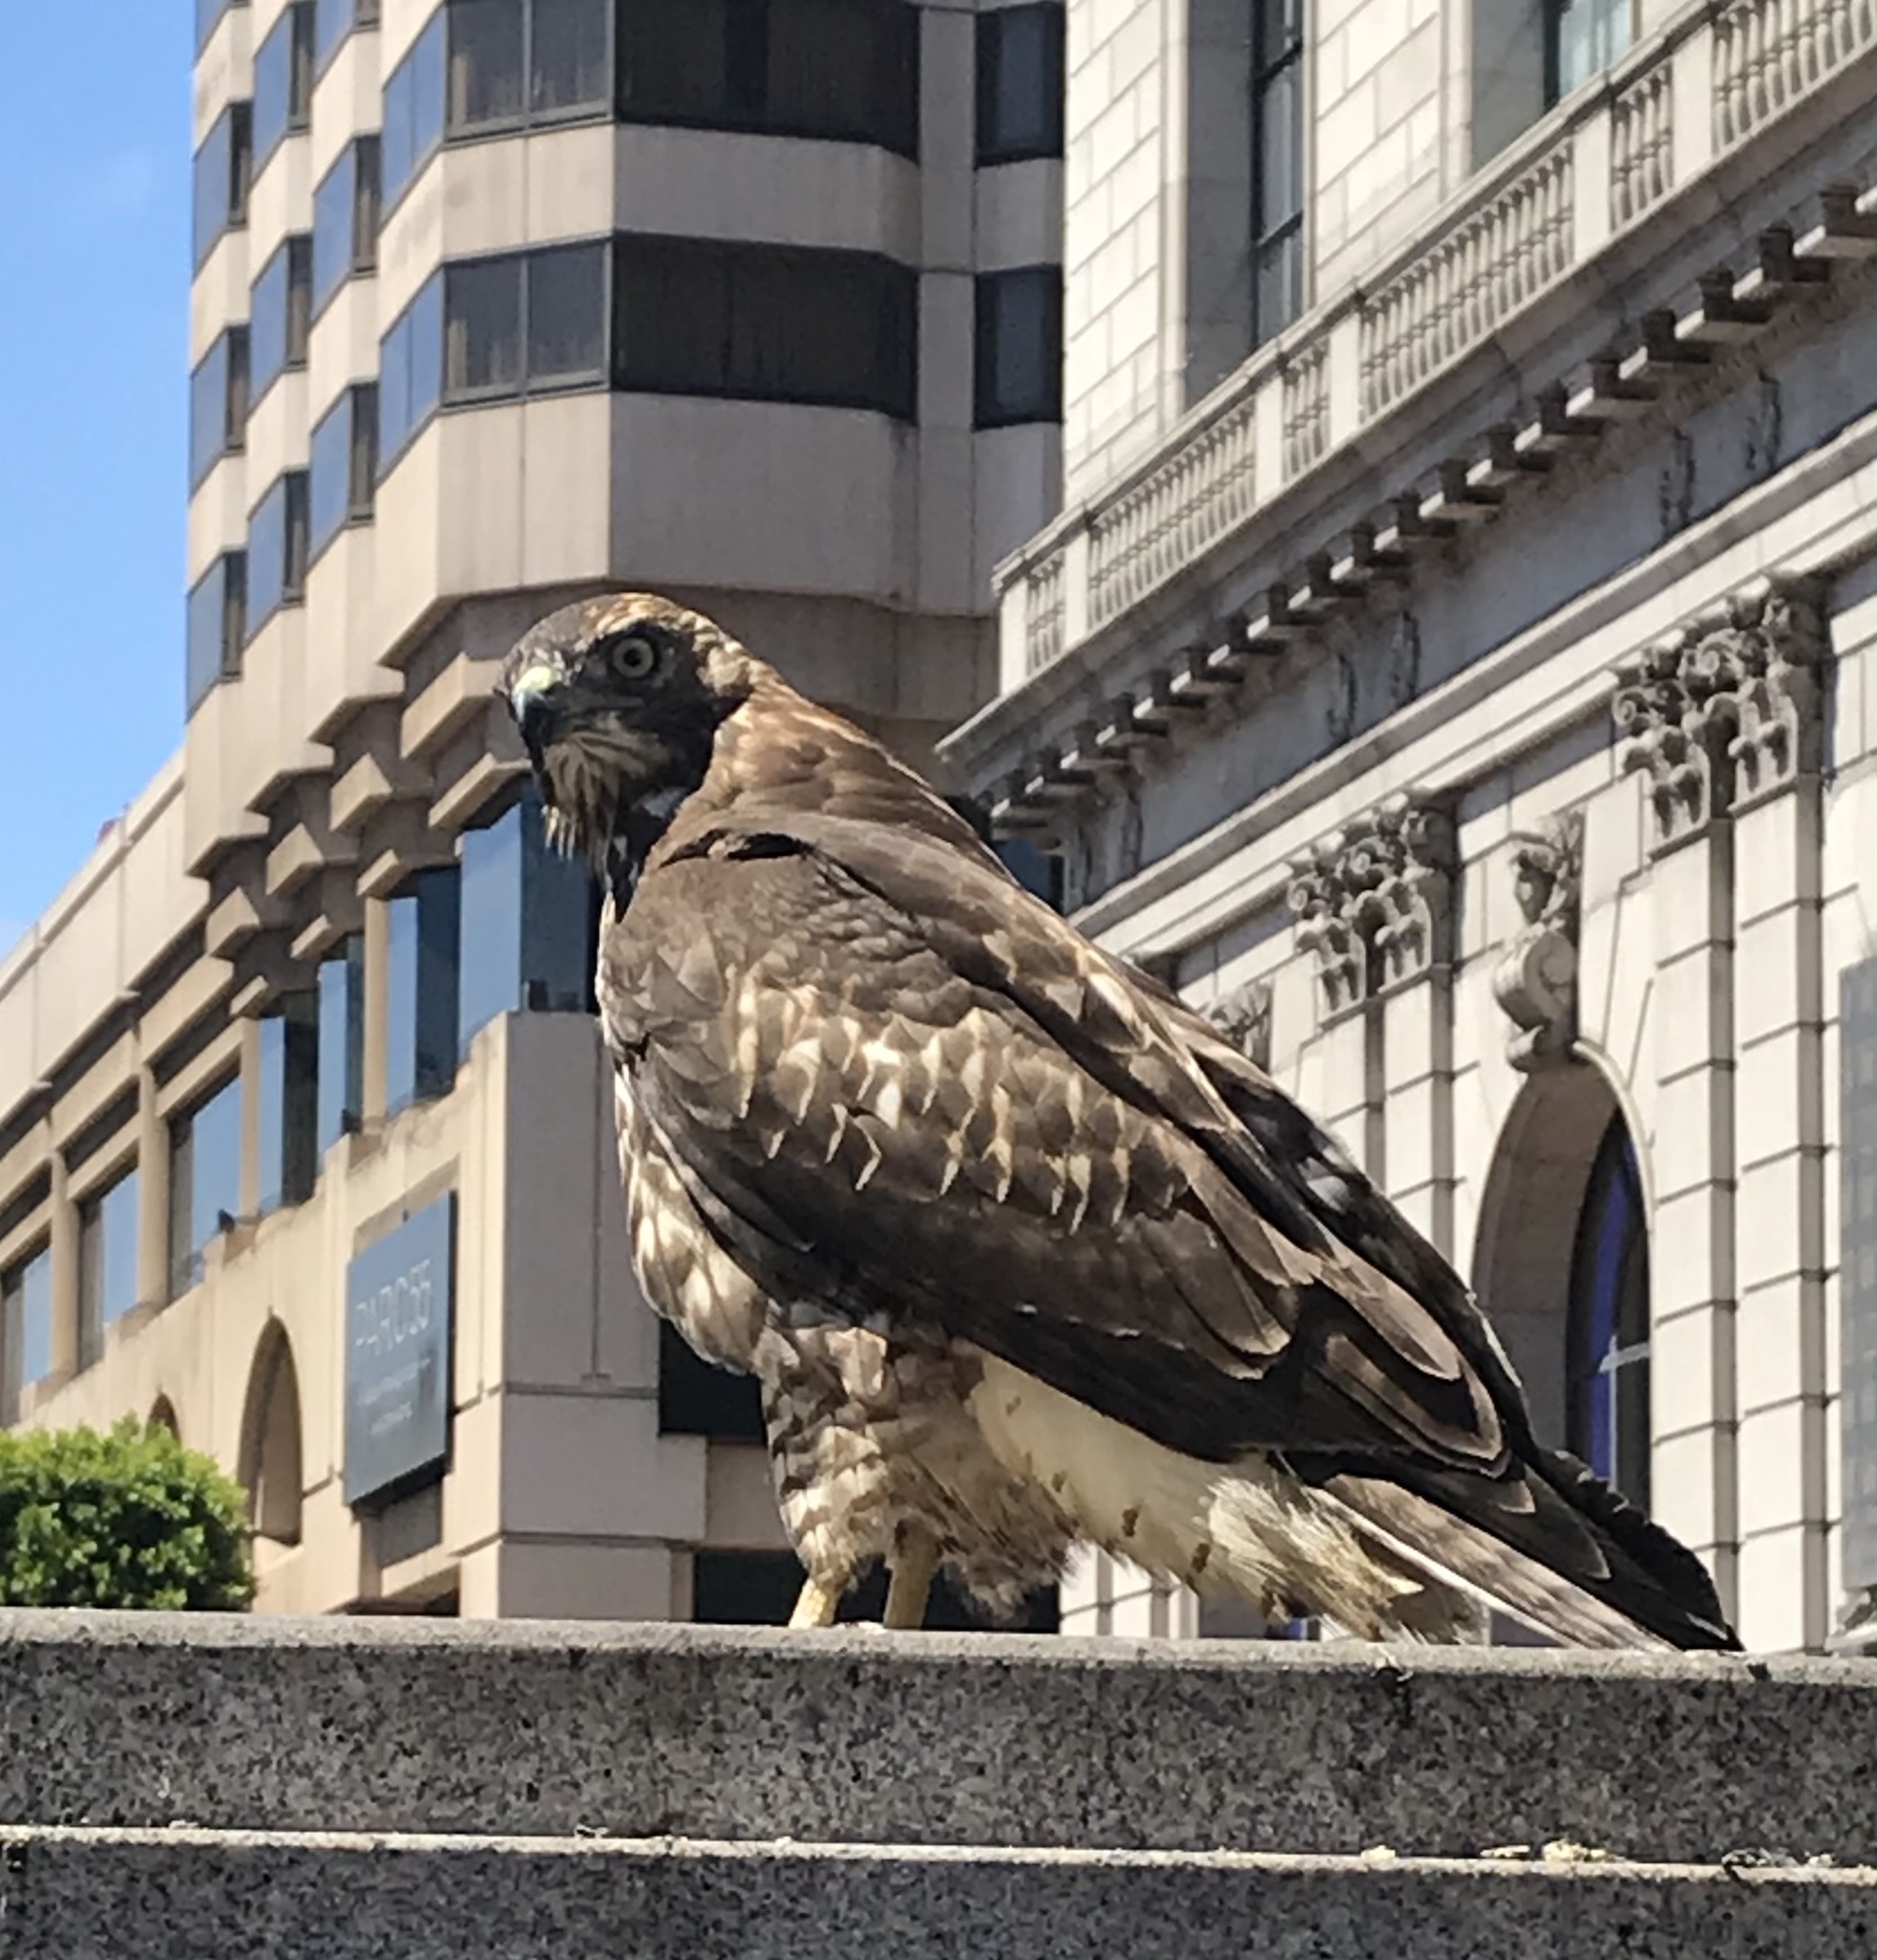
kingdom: Animalia
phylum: Chordata
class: Aves
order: Accipitriformes
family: Accipitridae
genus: Buteo
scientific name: Buteo jamaicensis
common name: Red-tailed hawk
